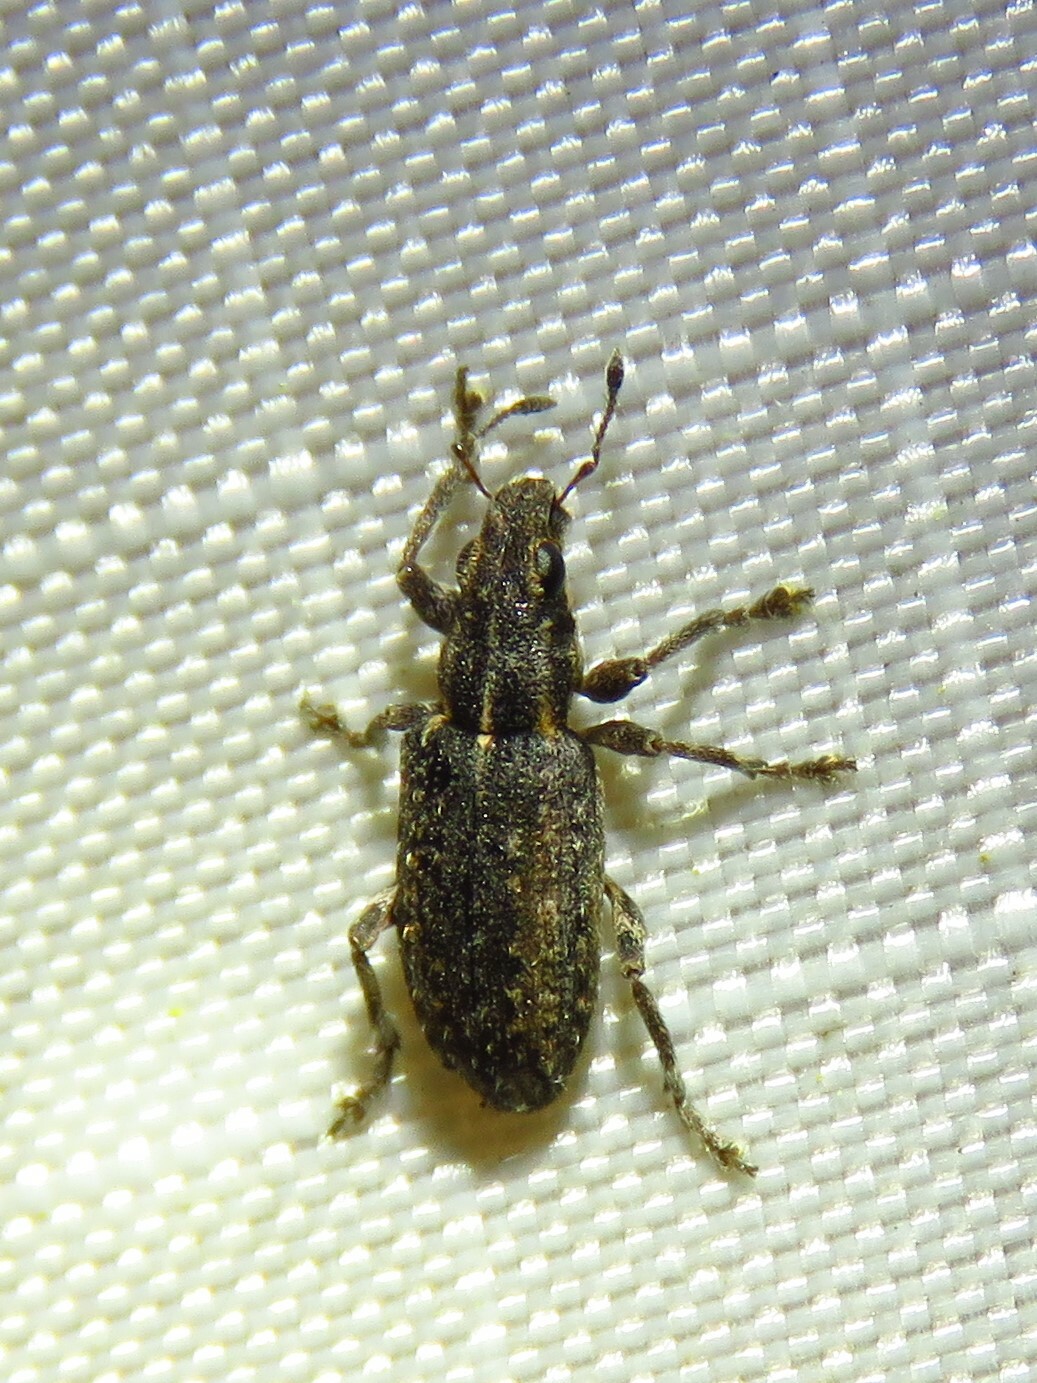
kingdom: Animalia
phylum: Arthropoda
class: Insecta
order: Coleoptera
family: Curculionidae
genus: Sitones
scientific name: Sitones californius
